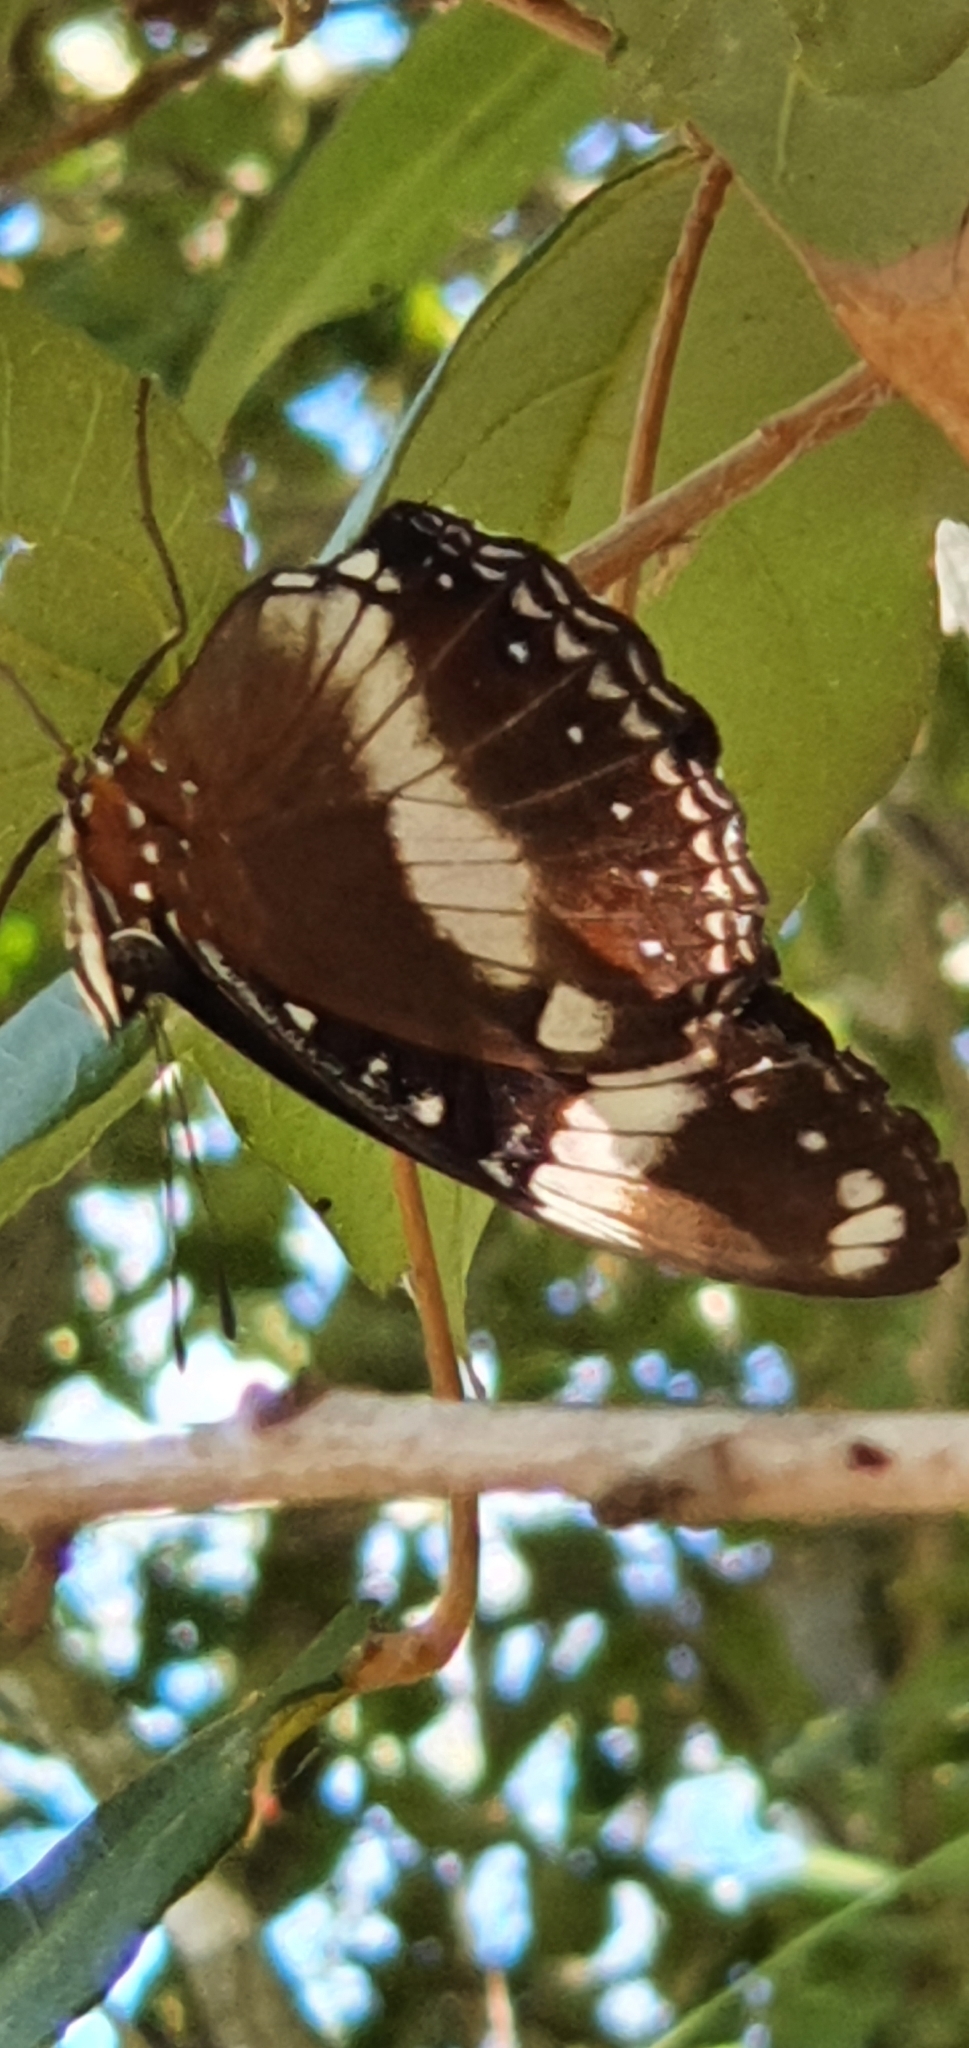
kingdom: Animalia
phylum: Arthropoda
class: Insecta
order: Lepidoptera
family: Nymphalidae
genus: Hypolimnas
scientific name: Hypolimnas bolina
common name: Great eggfly
